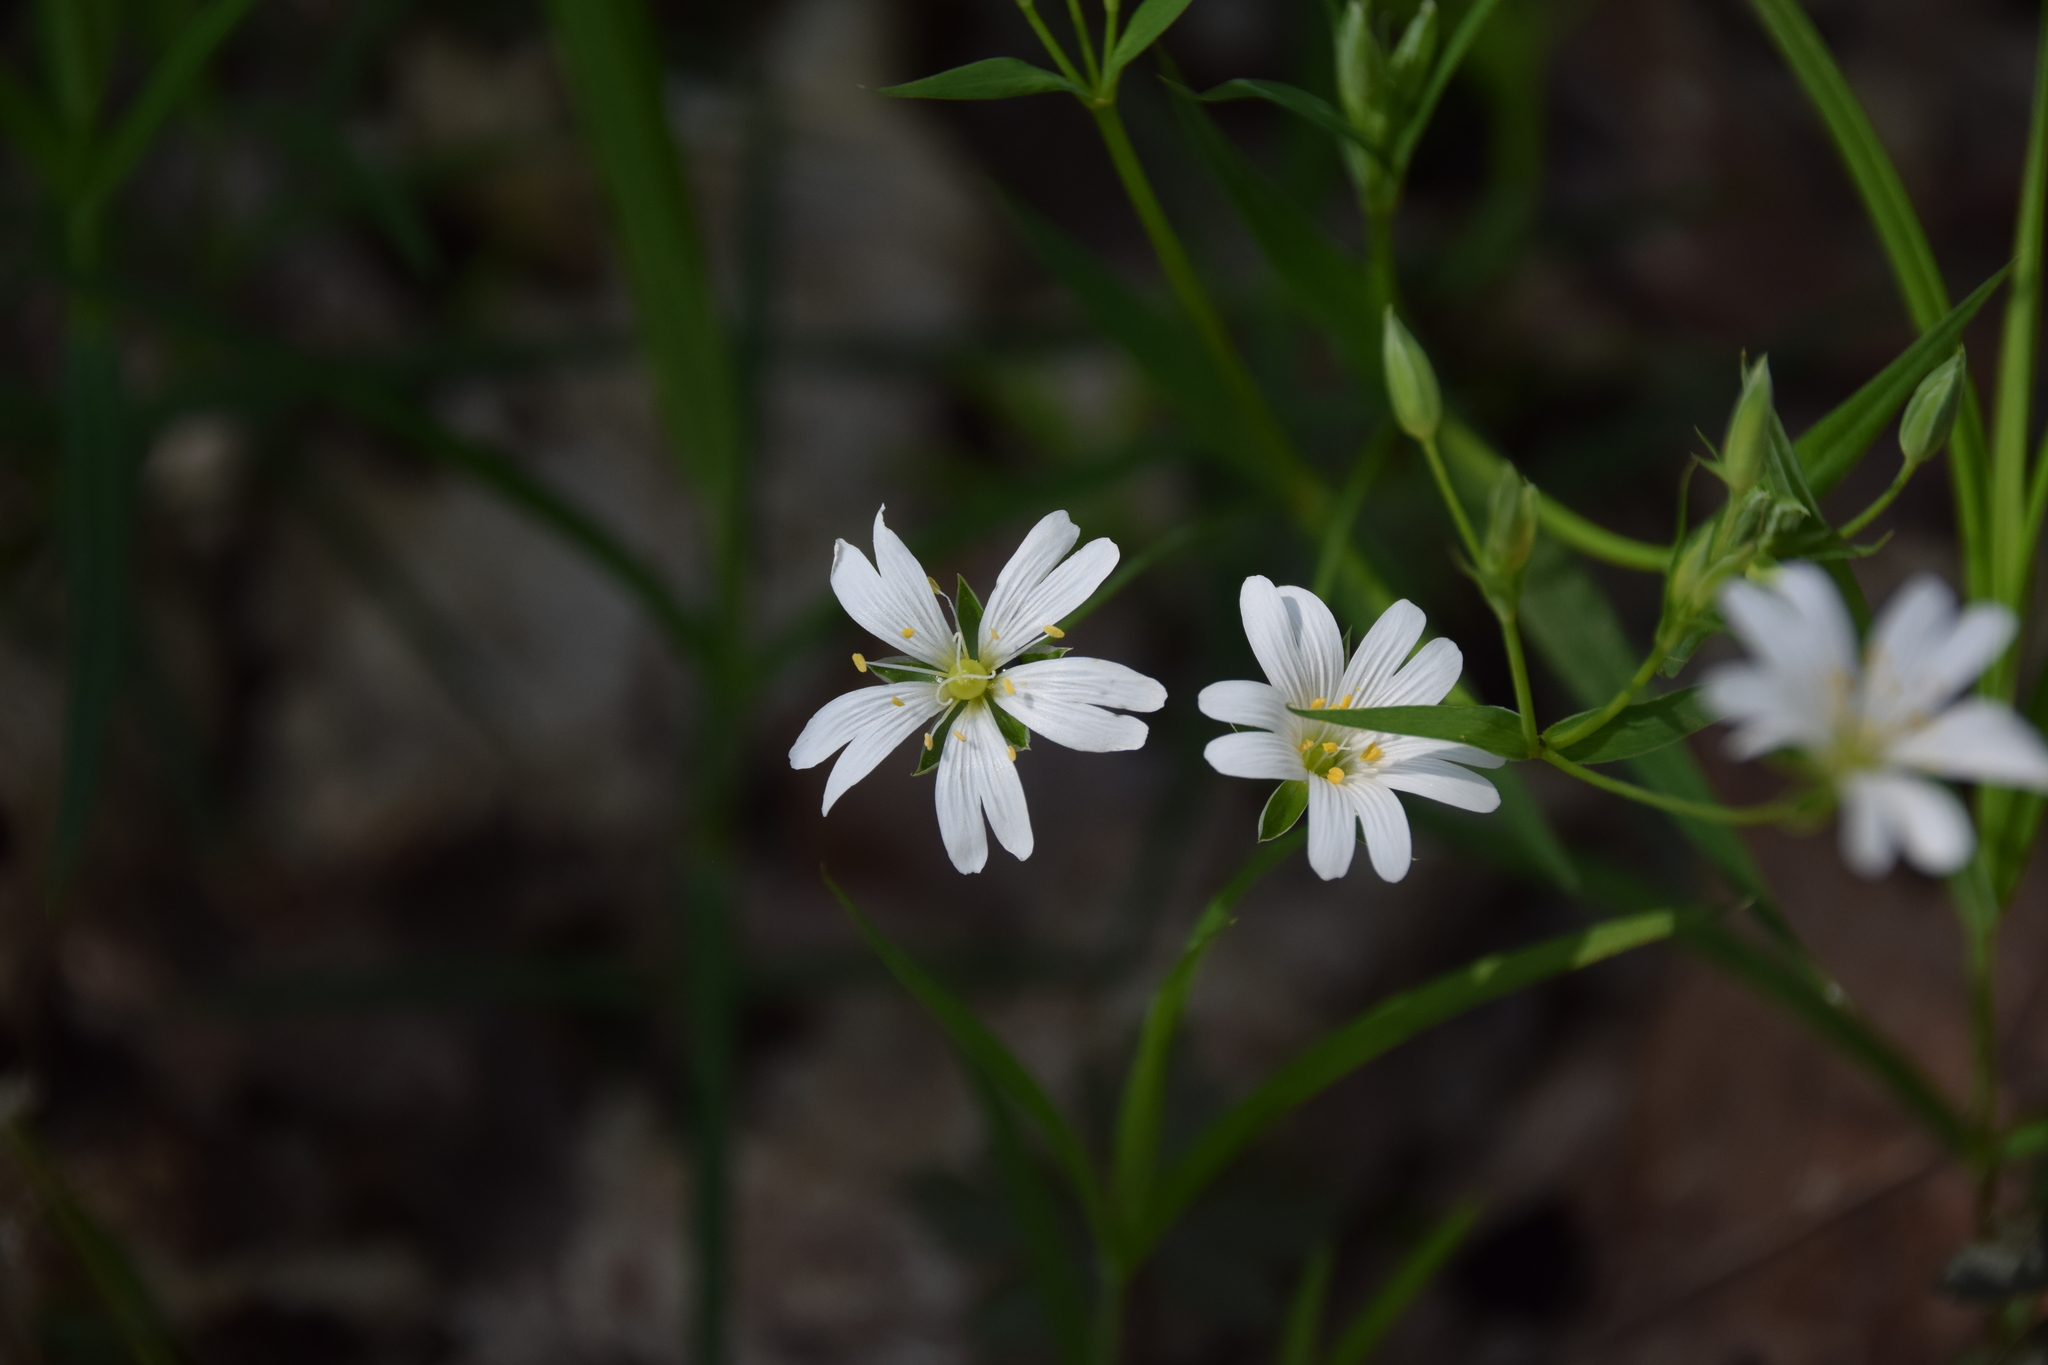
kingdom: Plantae
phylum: Tracheophyta
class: Magnoliopsida
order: Caryophyllales
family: Caryophyllaceae
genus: Rabelera
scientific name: Rabelera holostea
